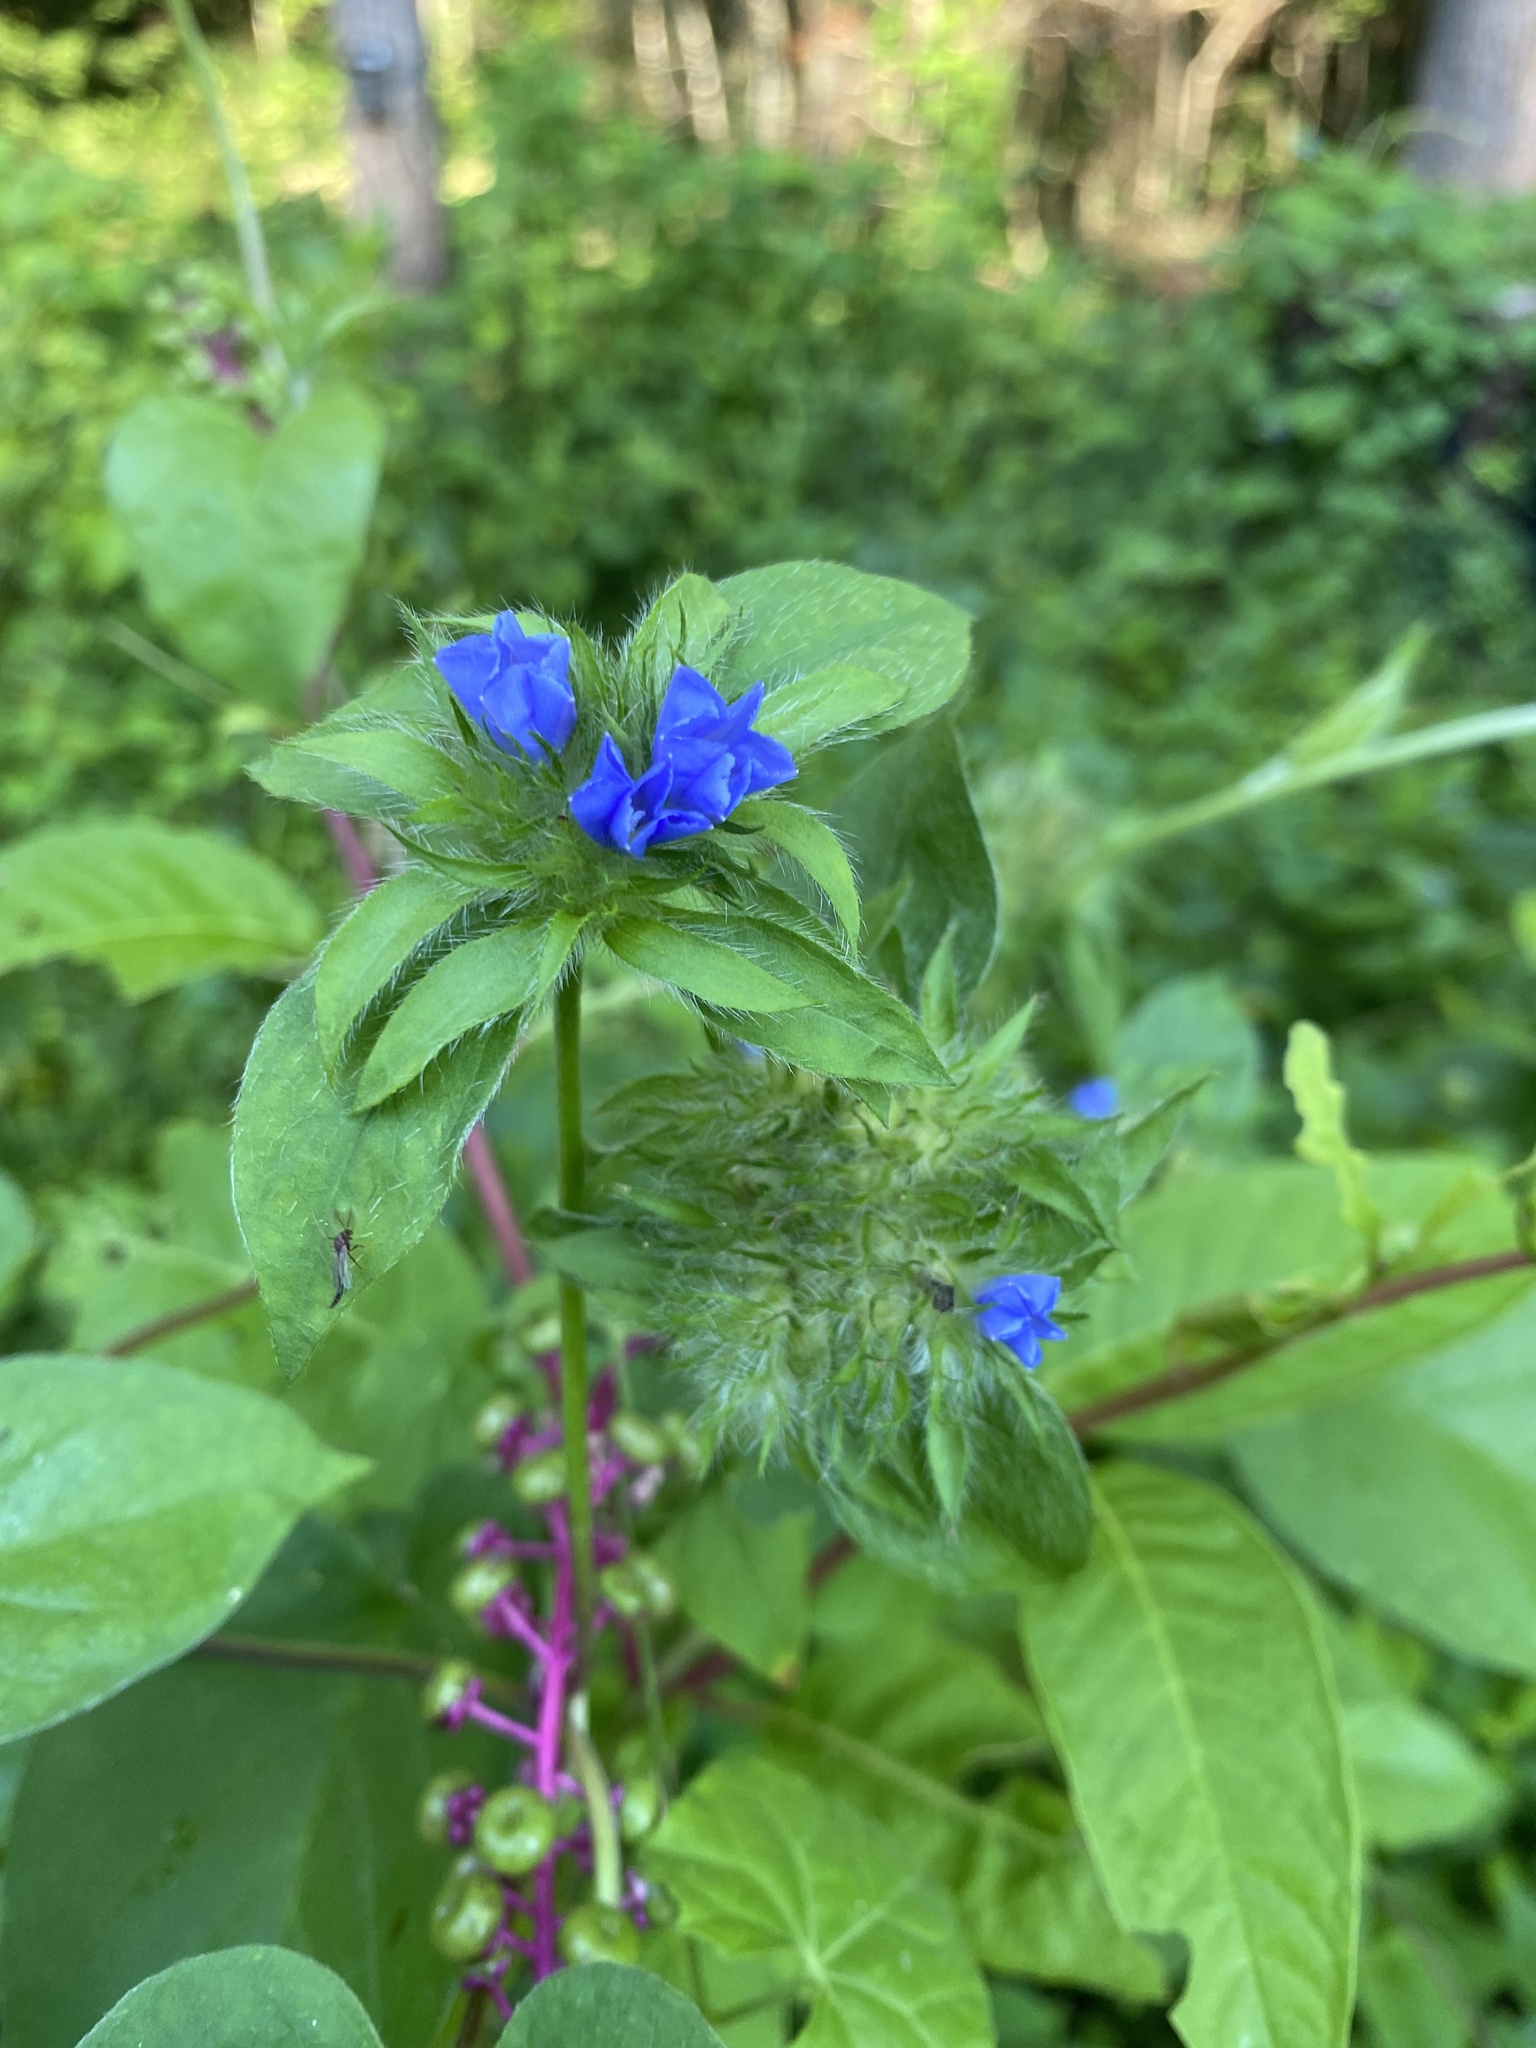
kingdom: Plantae
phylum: Tracheophyta
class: Magnoliopsida
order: Solanales
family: Convolvulaceae
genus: Jacquemontia
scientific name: Jacquemontia tamnifolia
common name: Hairy clustervine
